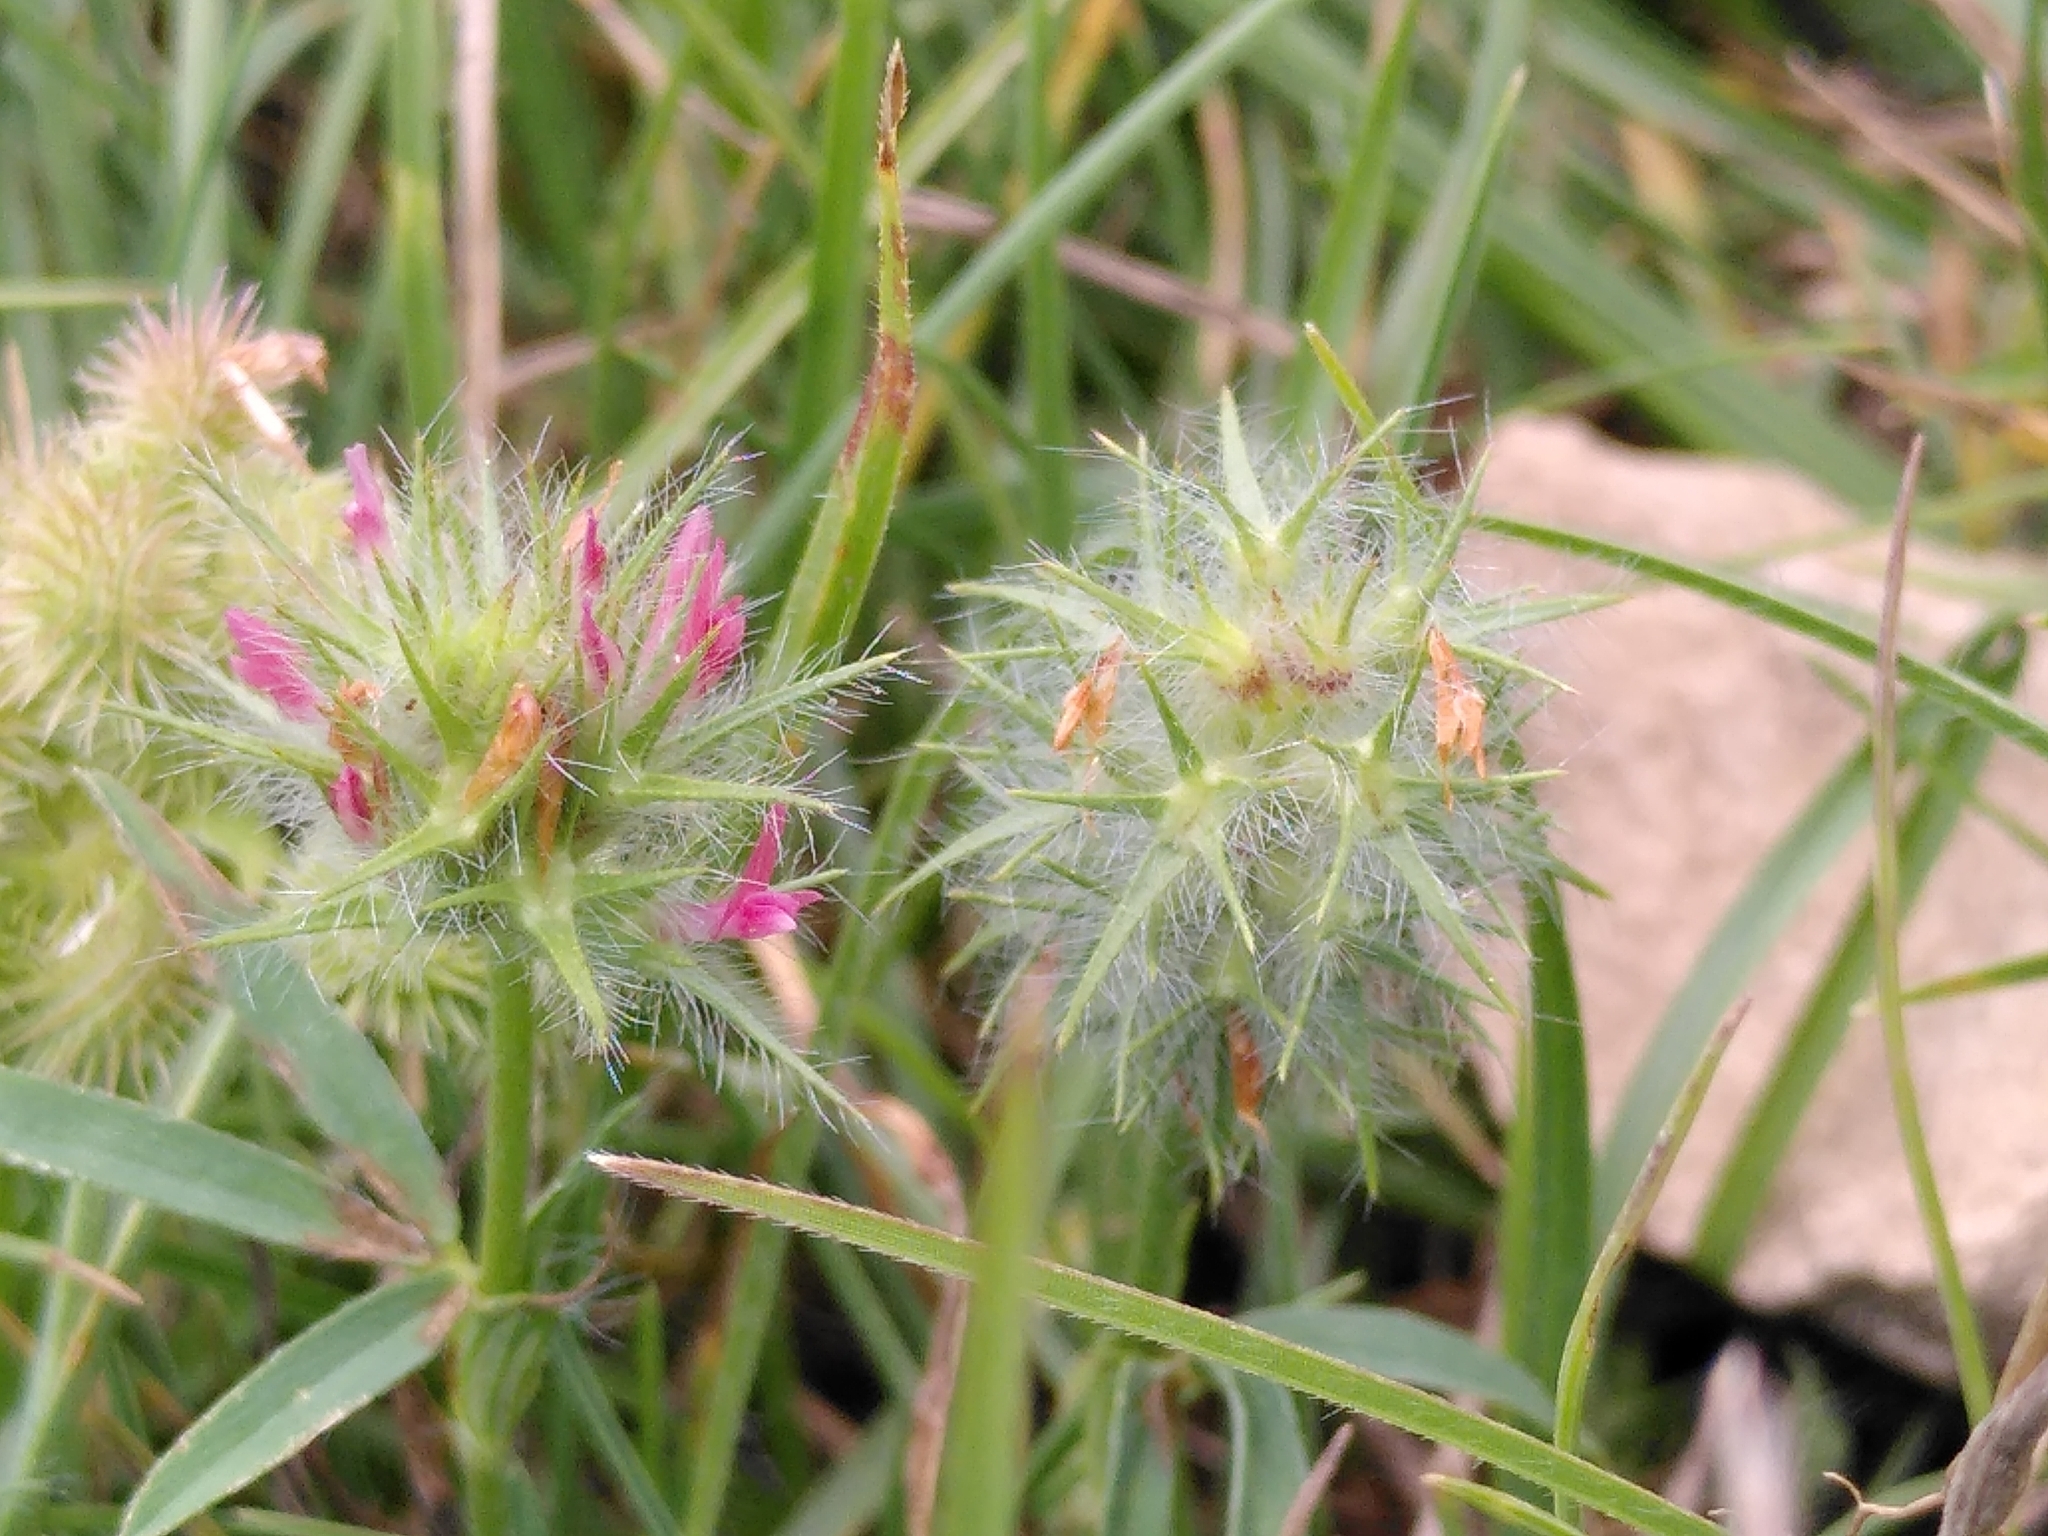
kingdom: Plantae
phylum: Tracheophyta
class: Magnoliopsida
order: Fabales
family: Fabaceae
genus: Trifolium
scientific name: Trifolium angustifolium
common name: Narrow clover
